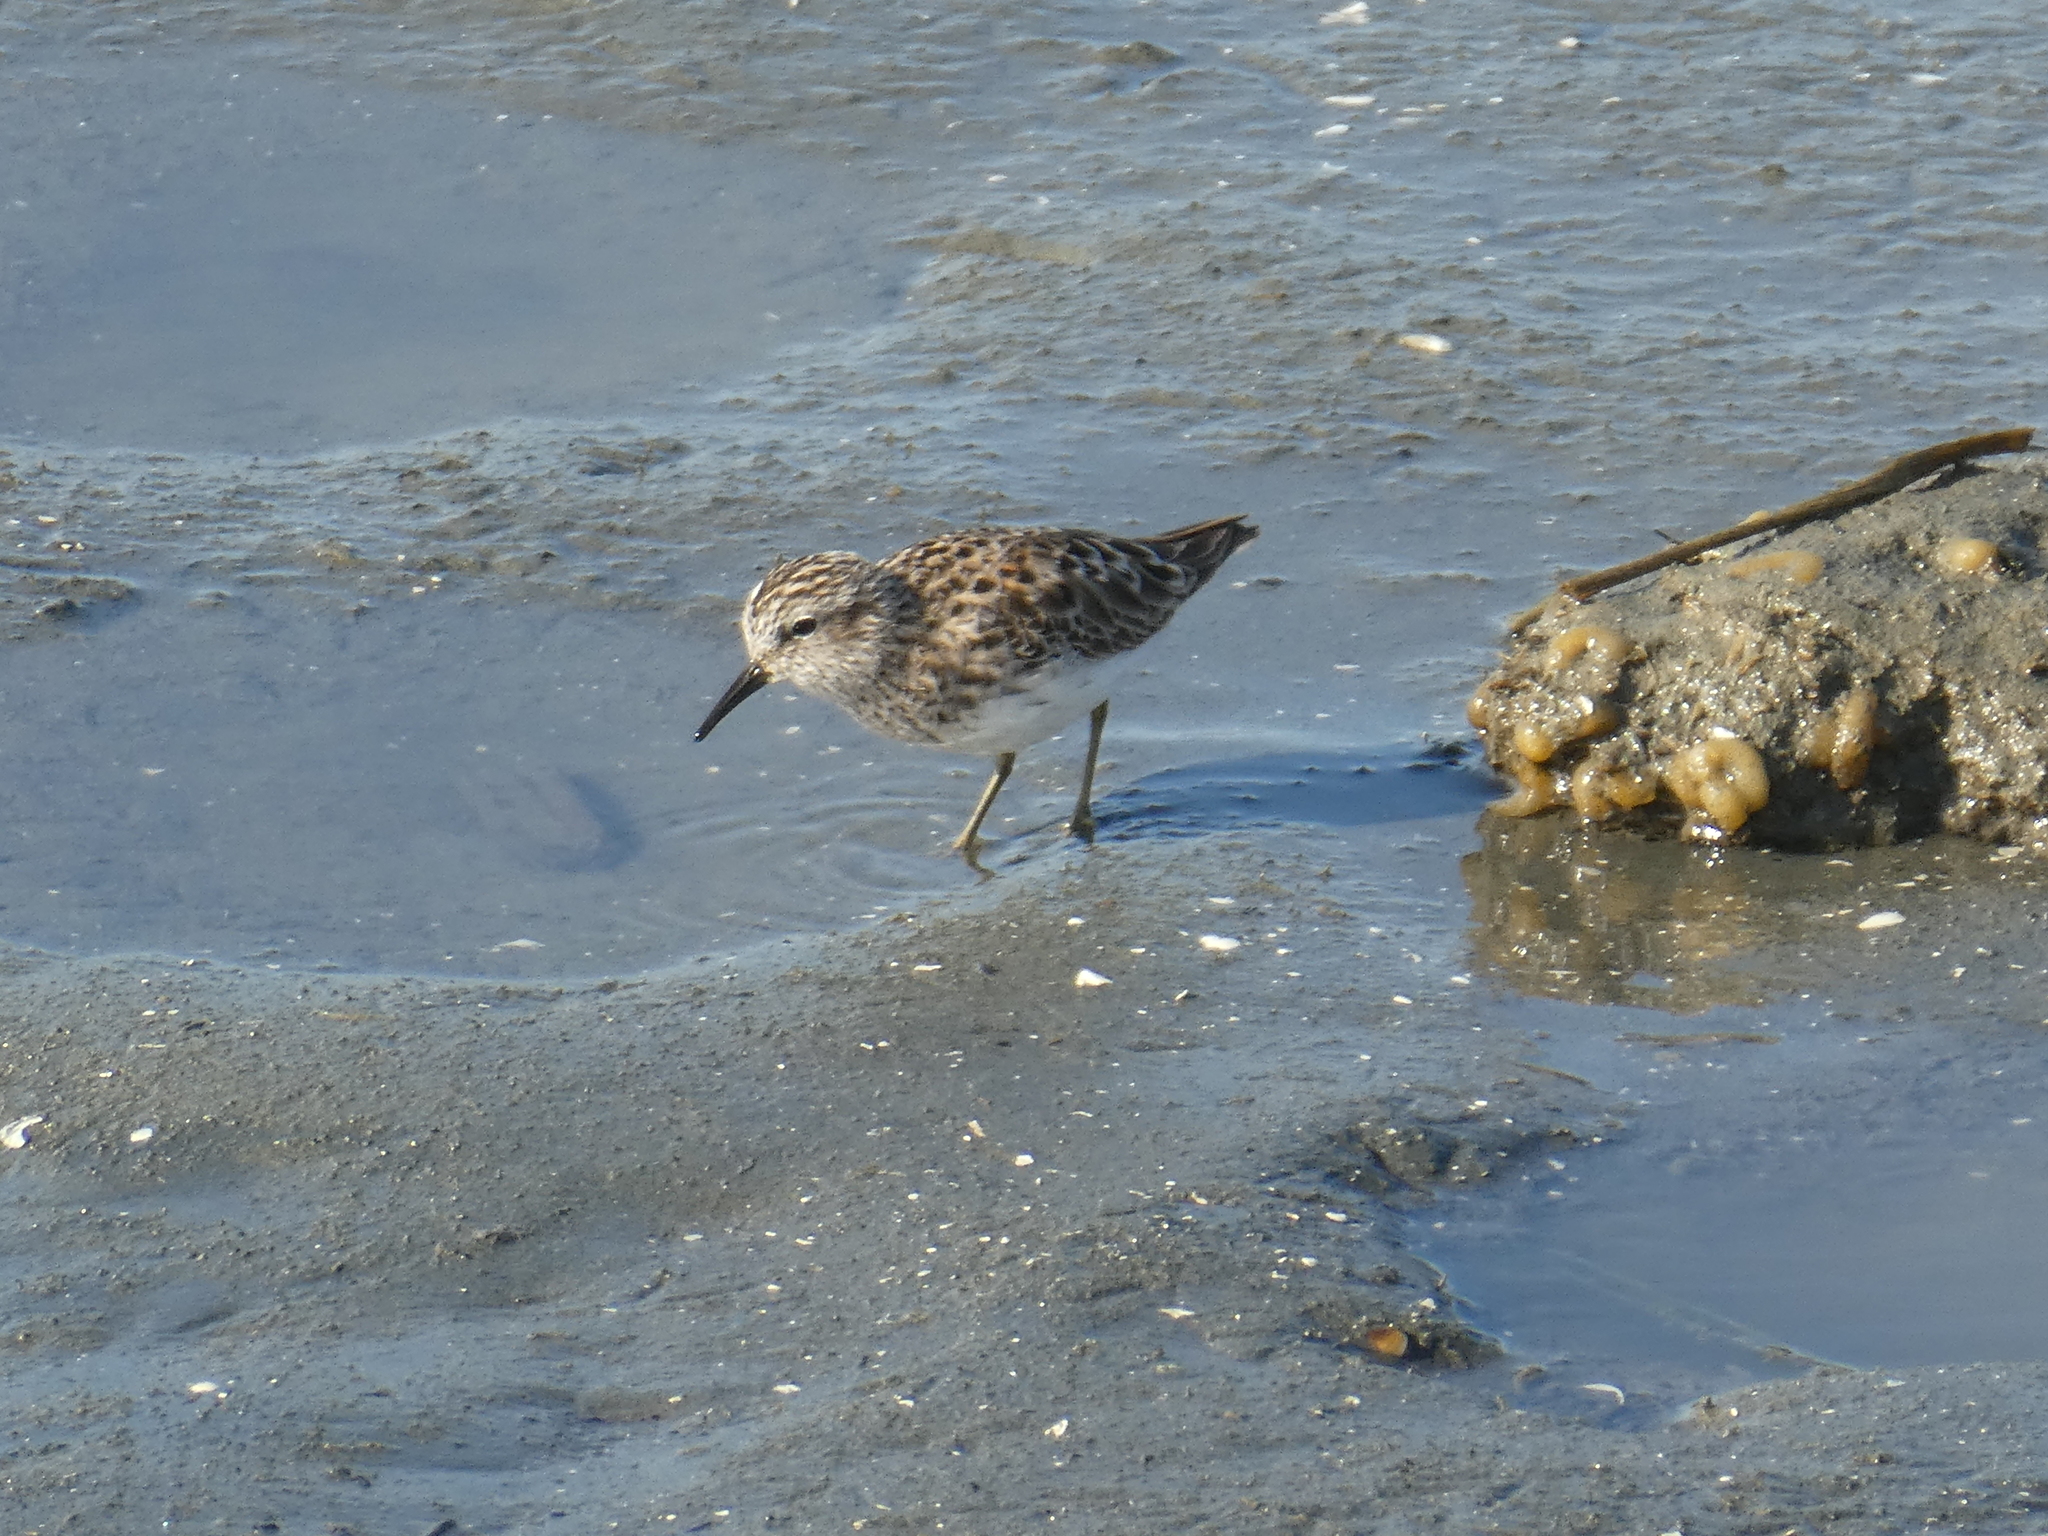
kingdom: Animalia
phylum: Chordata
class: Aves
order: Charadriiformes
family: Scolopacidae
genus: Calidris
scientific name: Calidris minutilla
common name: Least sandpiper
